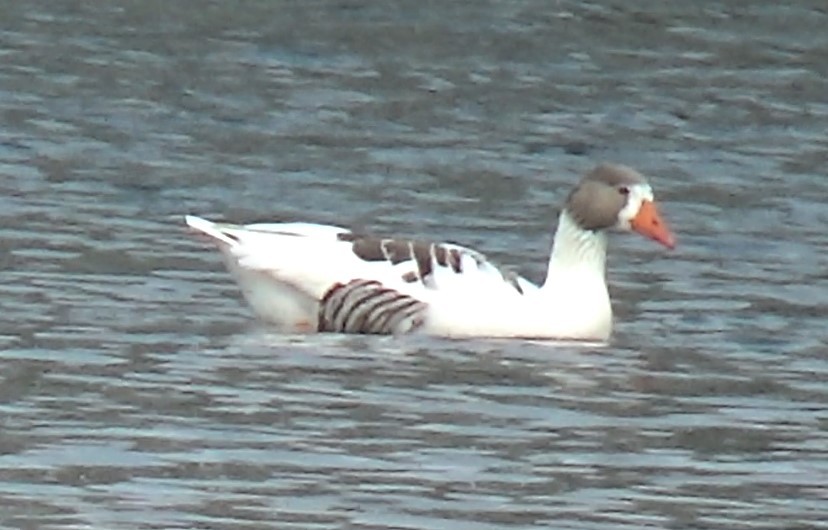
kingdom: Animalia
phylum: Chordata
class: Aves
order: Anseriformes
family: Anatidae
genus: Anser
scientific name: Anser anser
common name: Greylag goose
